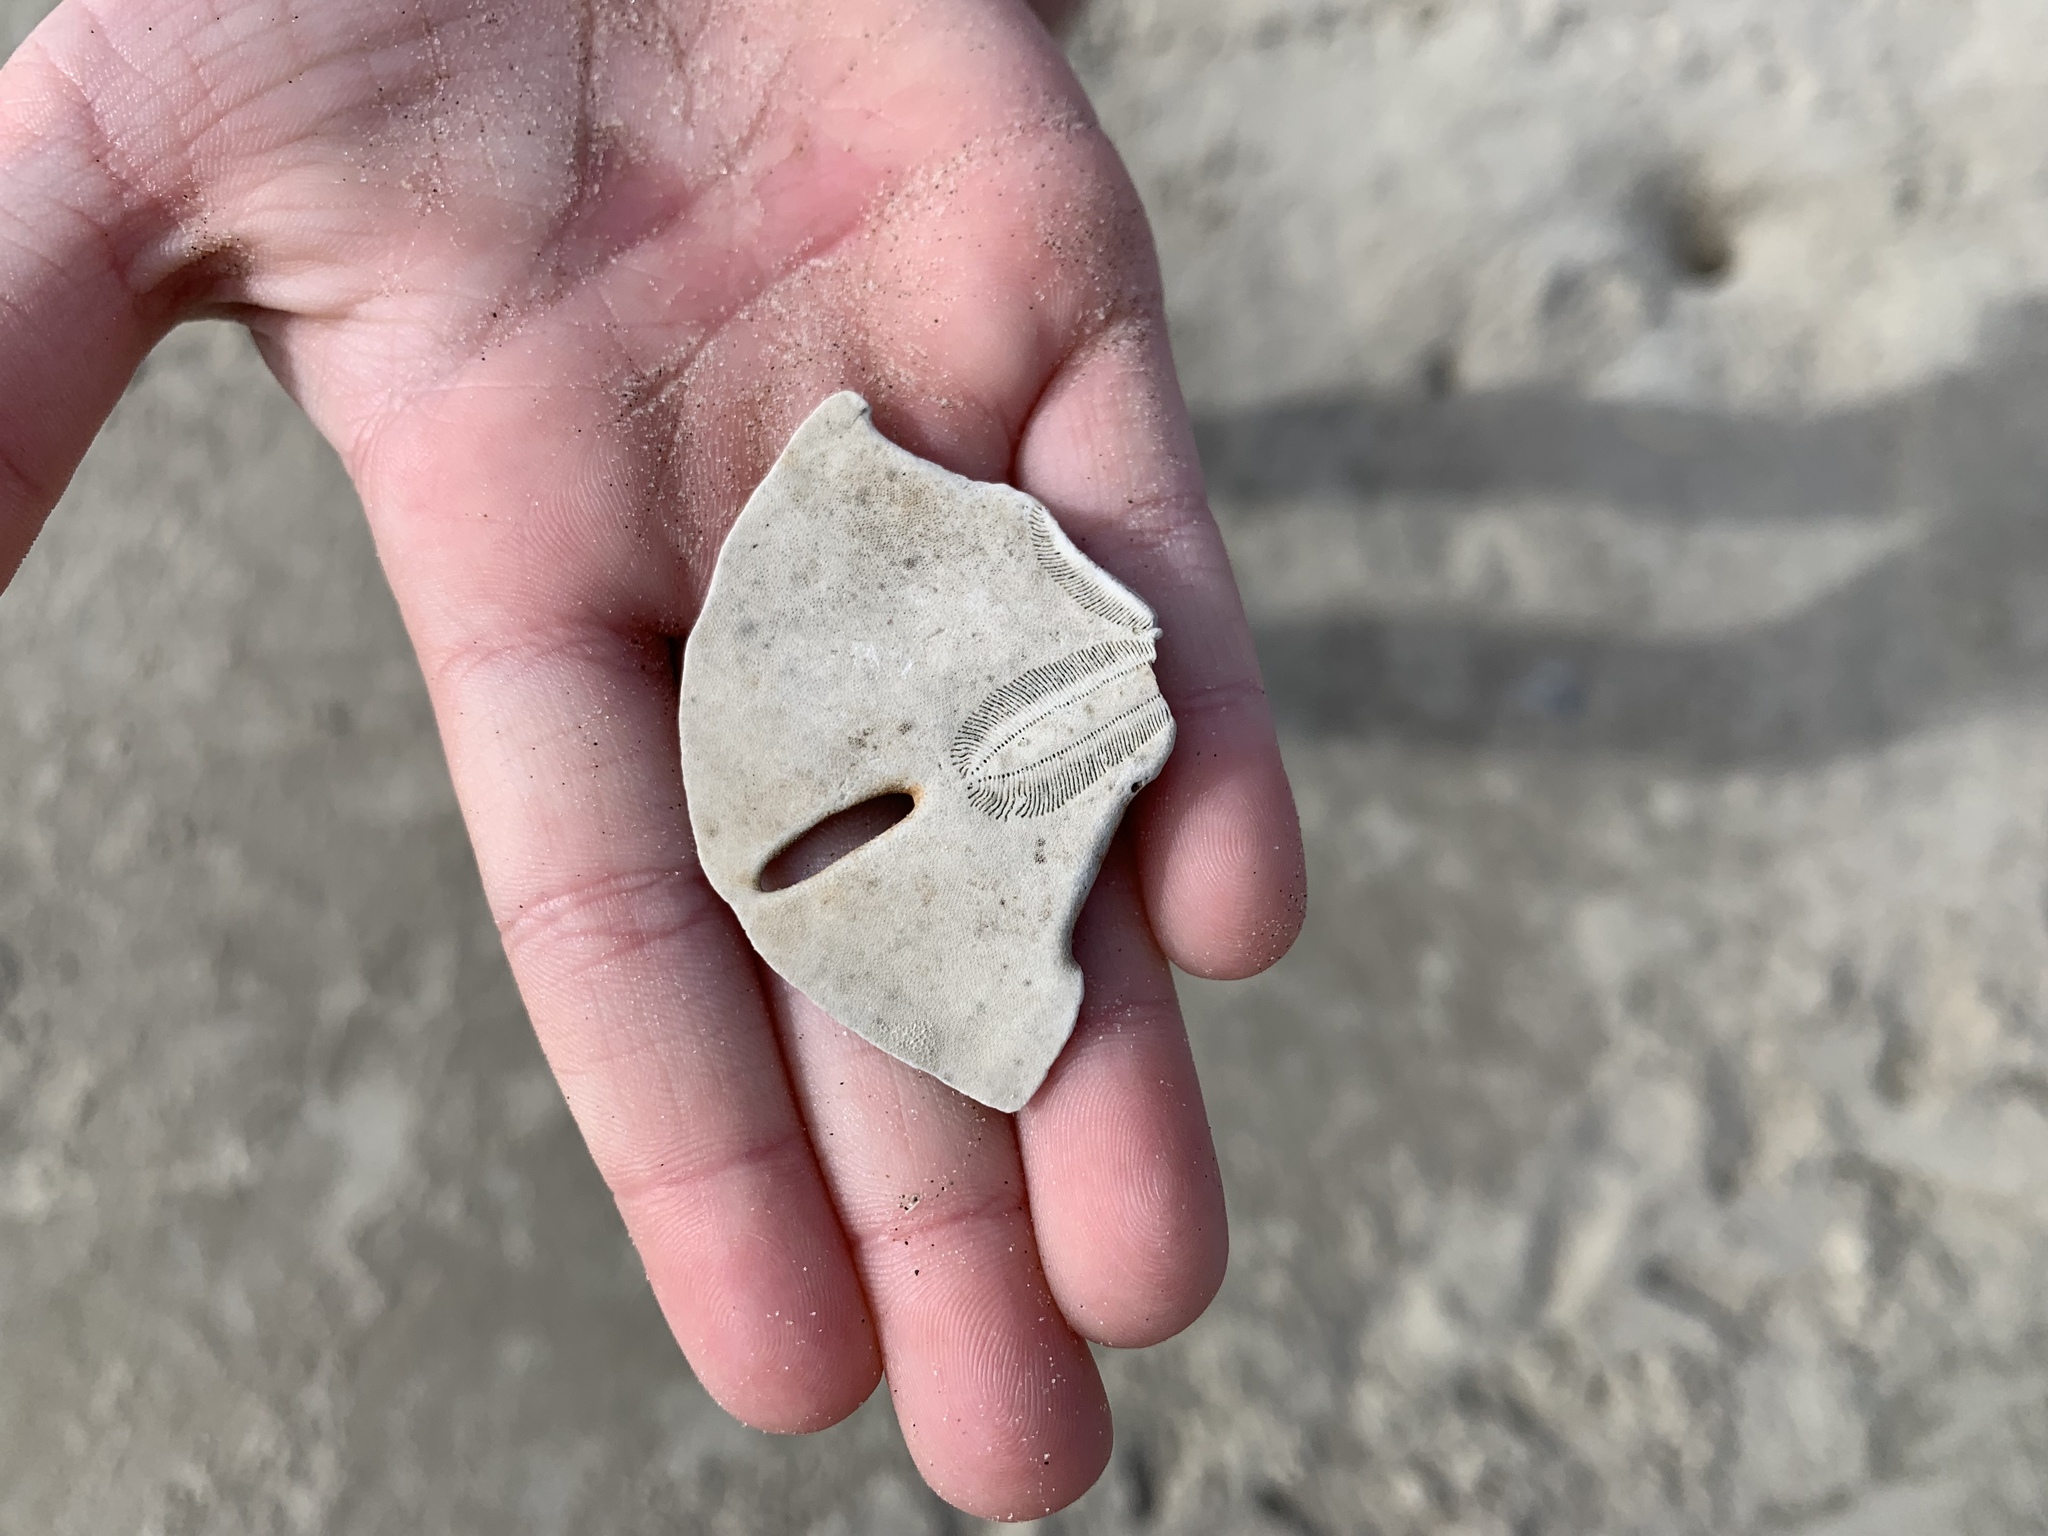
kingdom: Animalia
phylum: Echinodermata
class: Echinoidea
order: Echinolampadacea
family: Mellitidae
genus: Mellita
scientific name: Mellita quinquiesperforata
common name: Sand dollar
